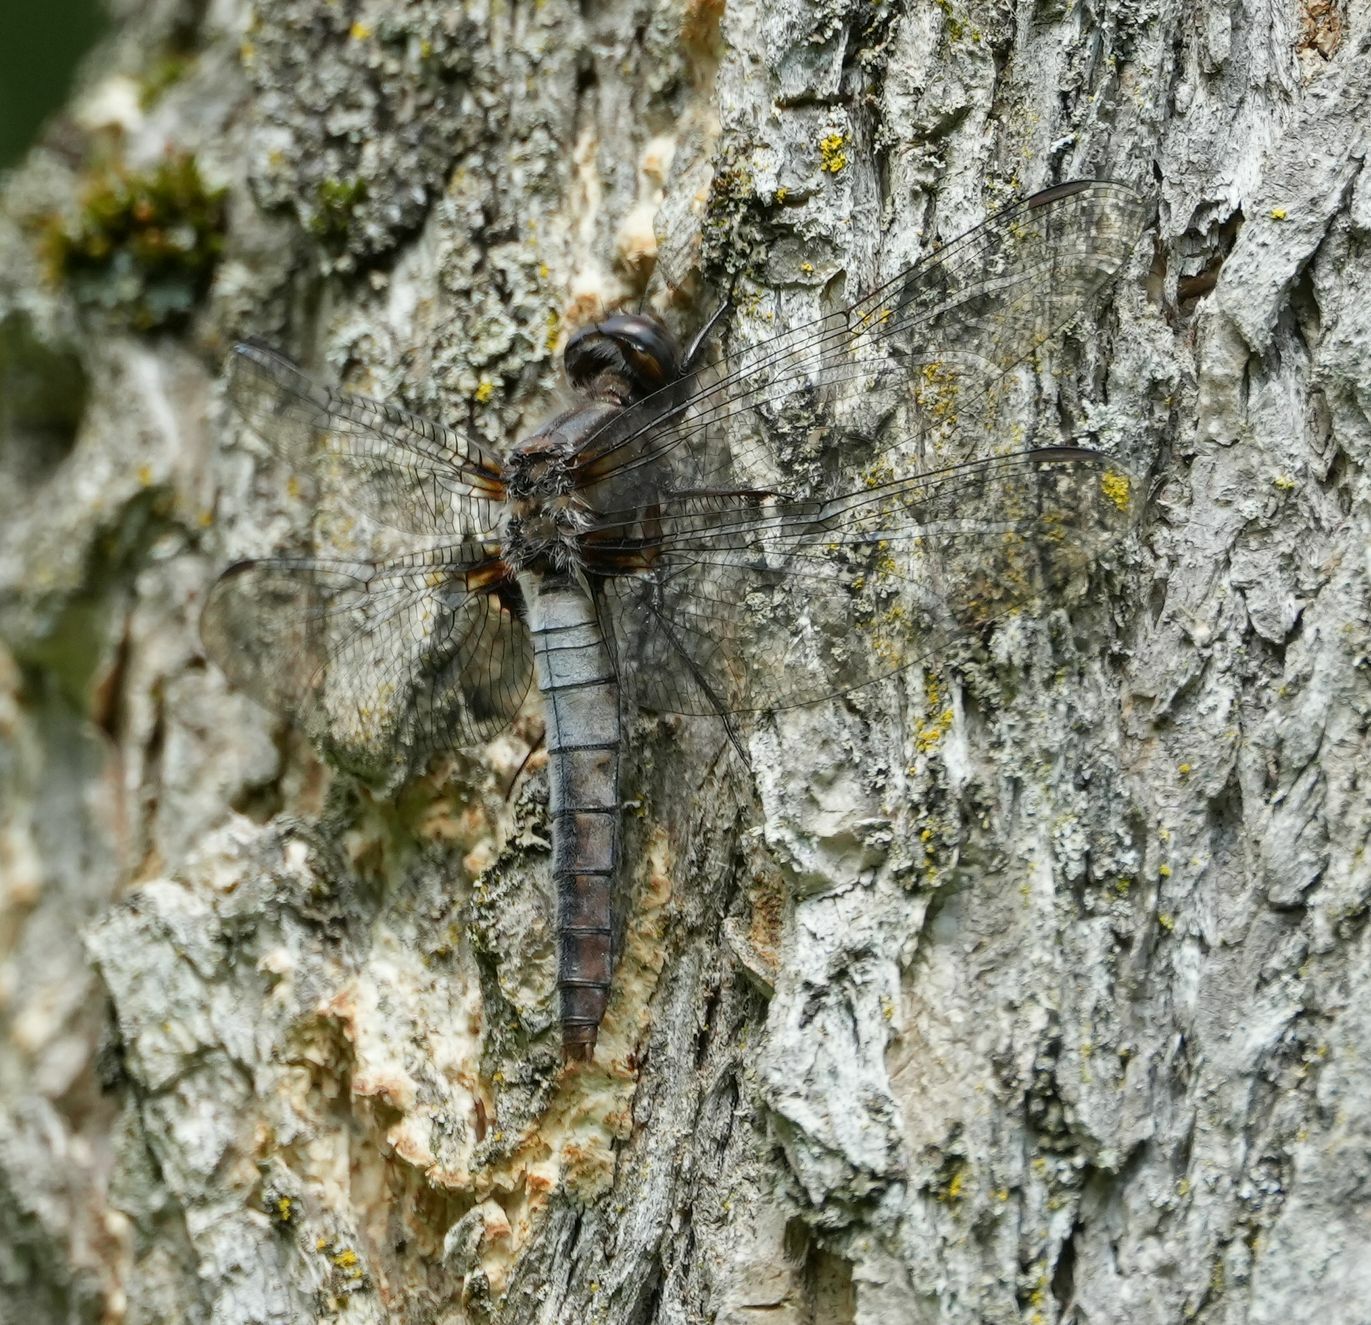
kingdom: Animalia
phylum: Arthropoda
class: Insecta
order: Odonata
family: Libellulidae
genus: Ladona
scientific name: Ladona julia
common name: Chalk-fronted corporal
